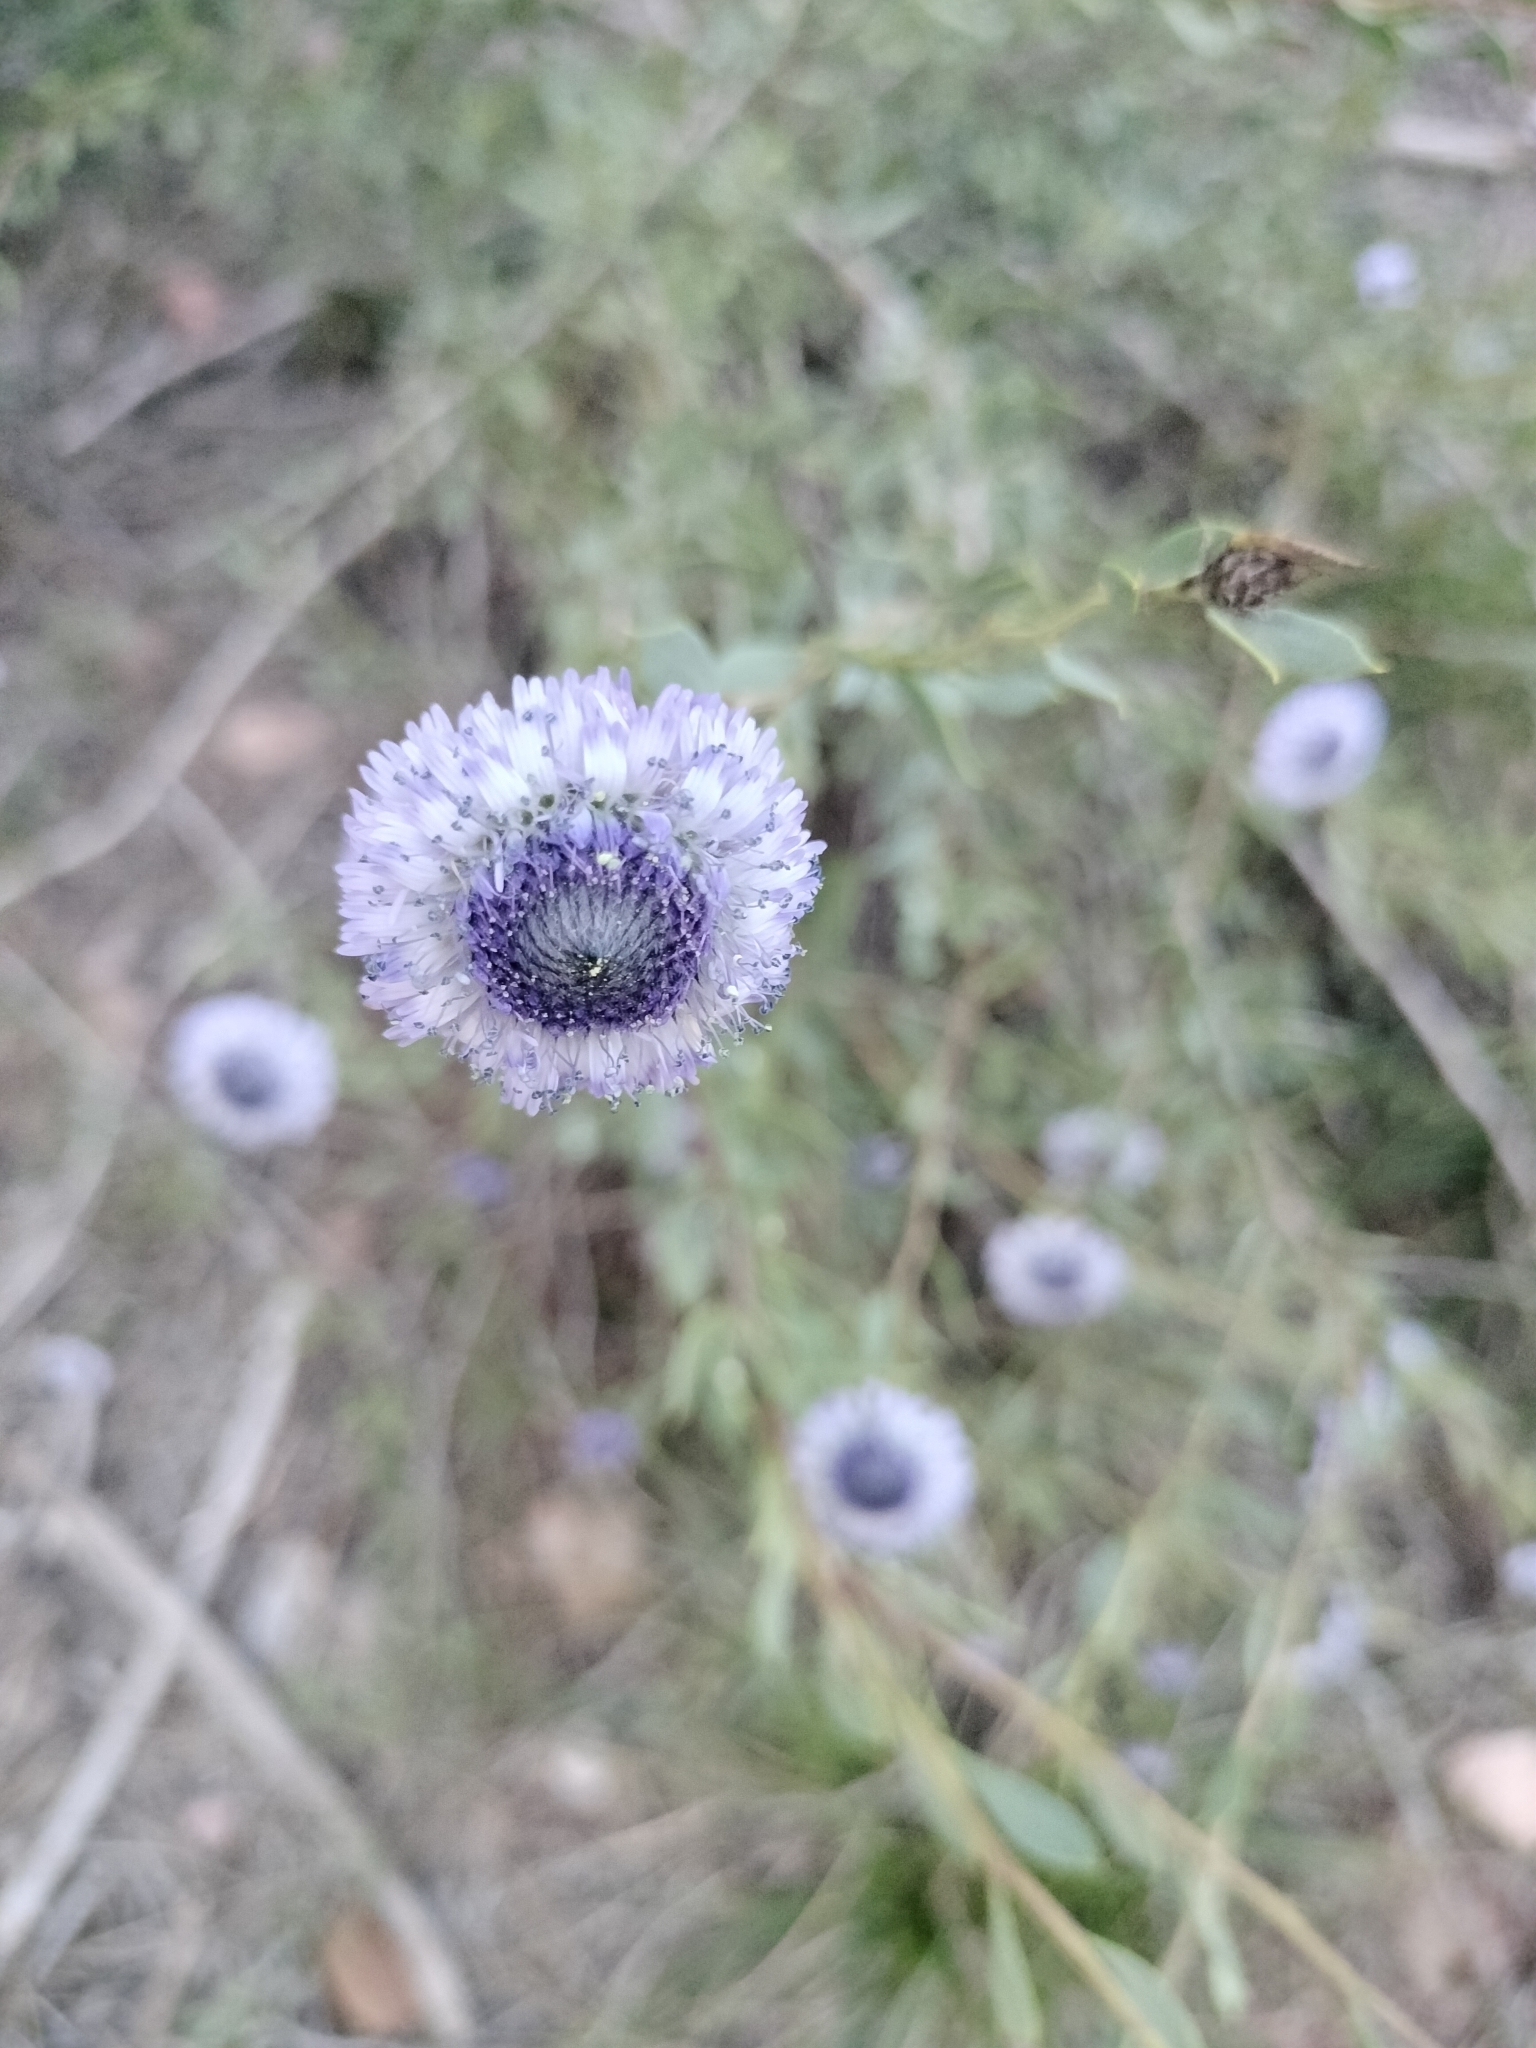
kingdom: Plantae
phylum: Tracheophyta
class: Magnoliopsida
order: Lamiales
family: Plantaginaceae
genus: Globularia
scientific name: Globularia alypum
